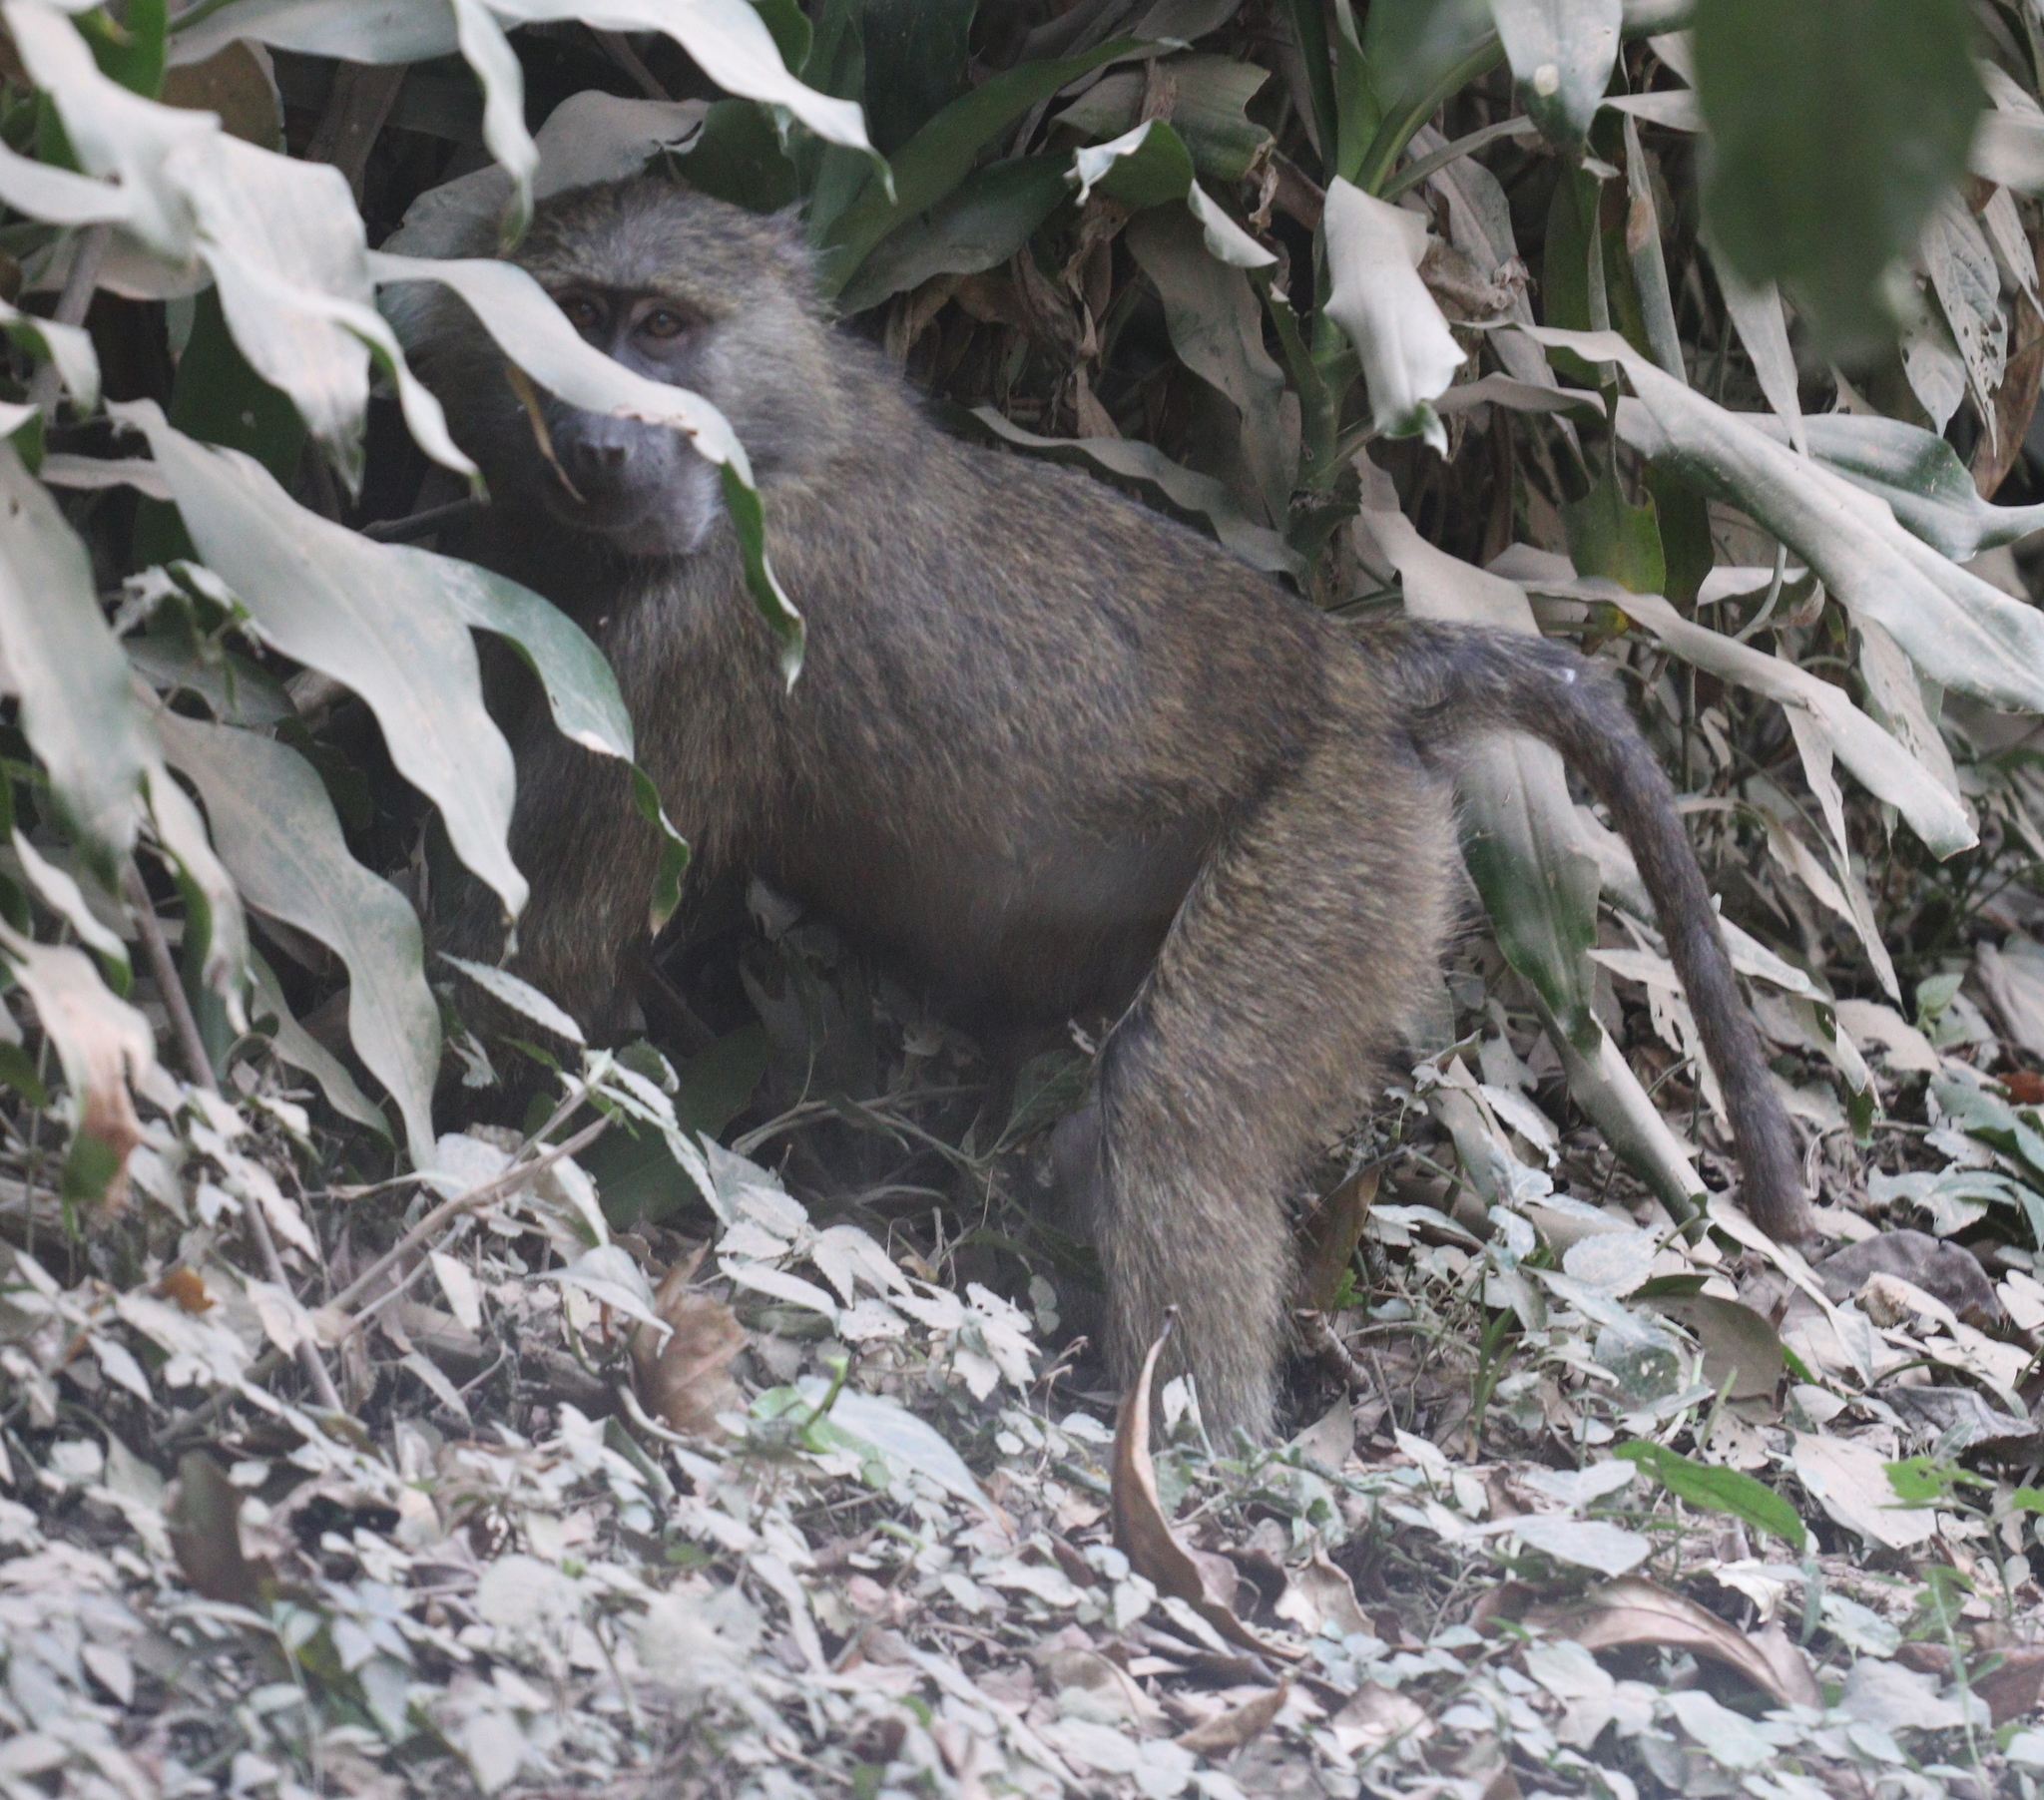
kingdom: Animalia
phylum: Chordata
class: Mammalia
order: Primates
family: Cercopithecidae
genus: Papio
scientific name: Papio anubis
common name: Olive baboon
